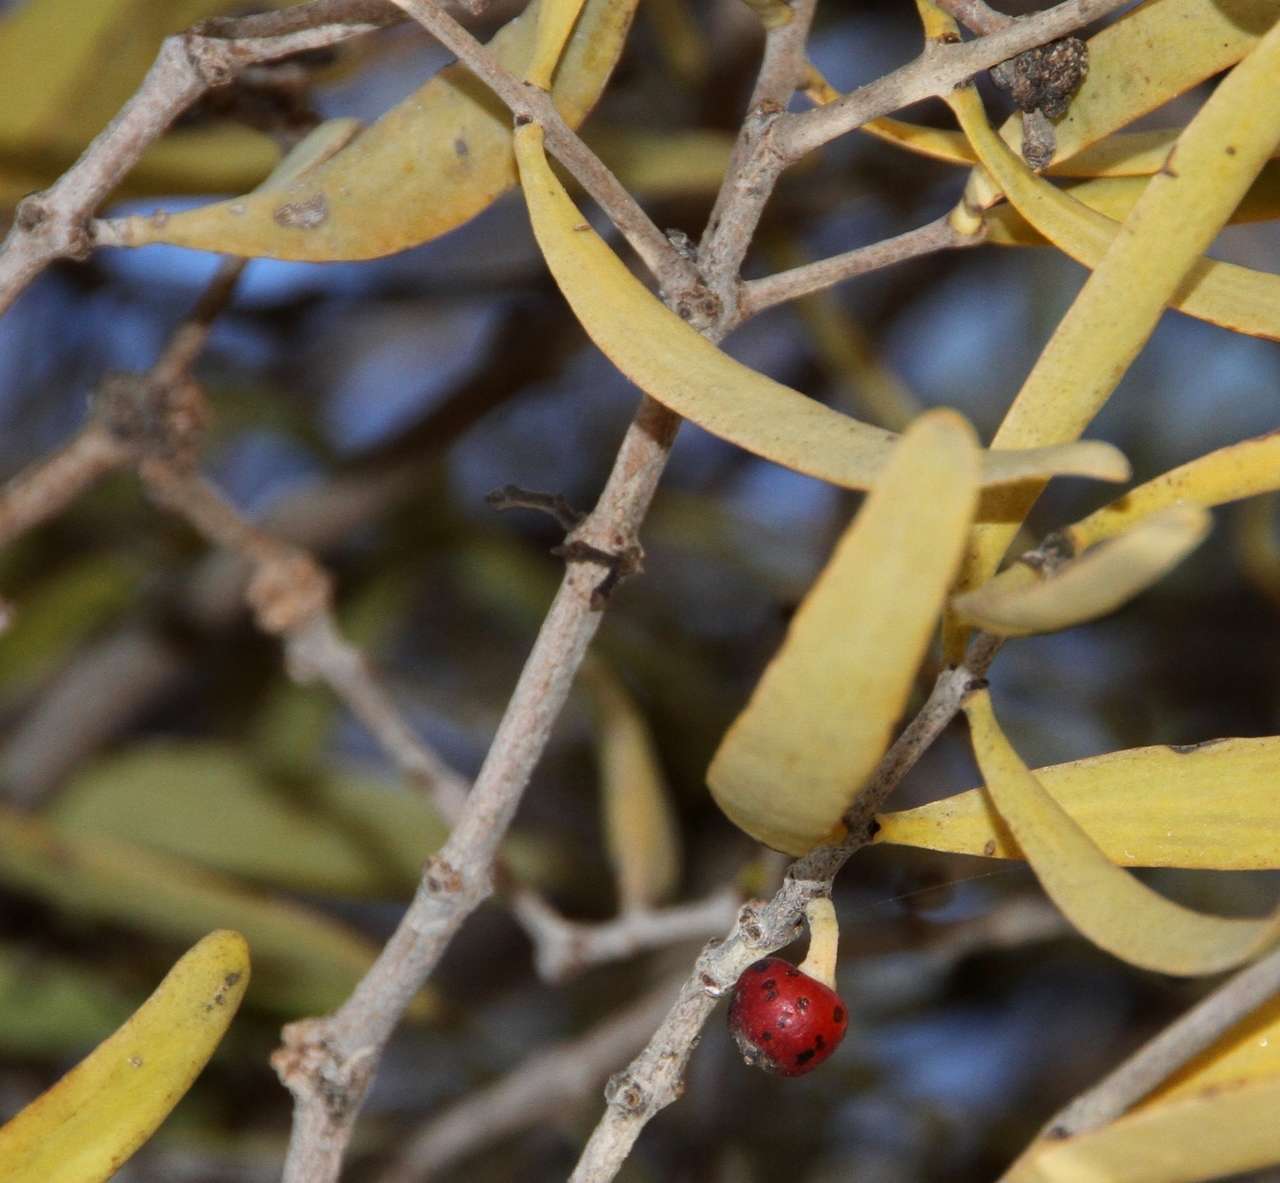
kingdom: Plantae
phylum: Tracheophyta
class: Magnoliopsida
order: Santalales
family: Loranthaceae
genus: Lysiana
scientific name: Lysiana exocarpi
